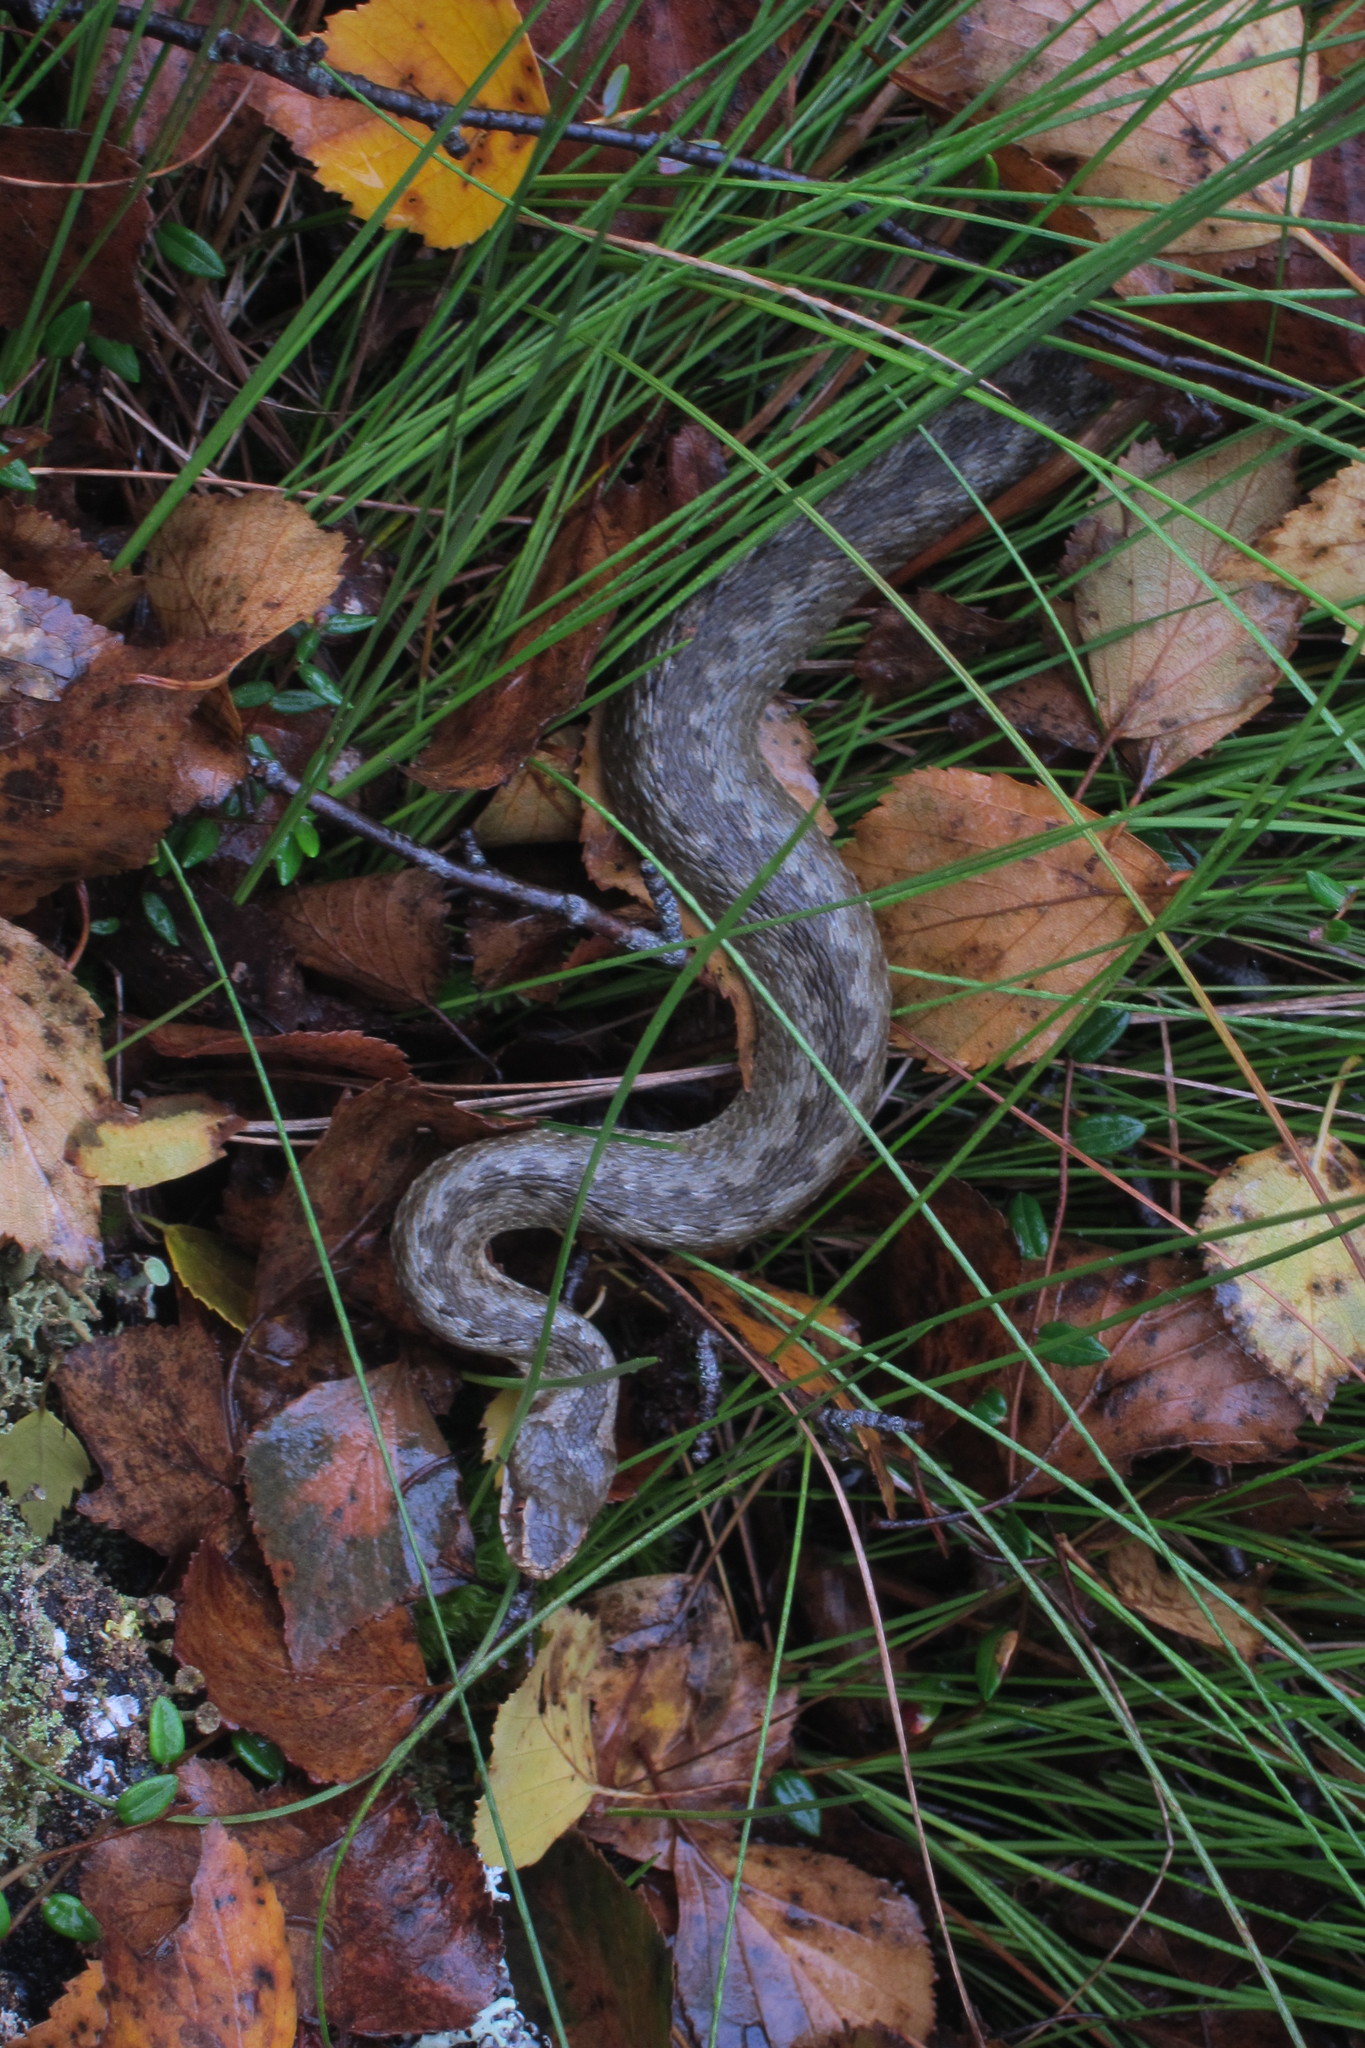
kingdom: Animalia
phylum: Chordata
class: Squamata
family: Viperidae
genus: Vipera
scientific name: Vipera berus
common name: Adder
